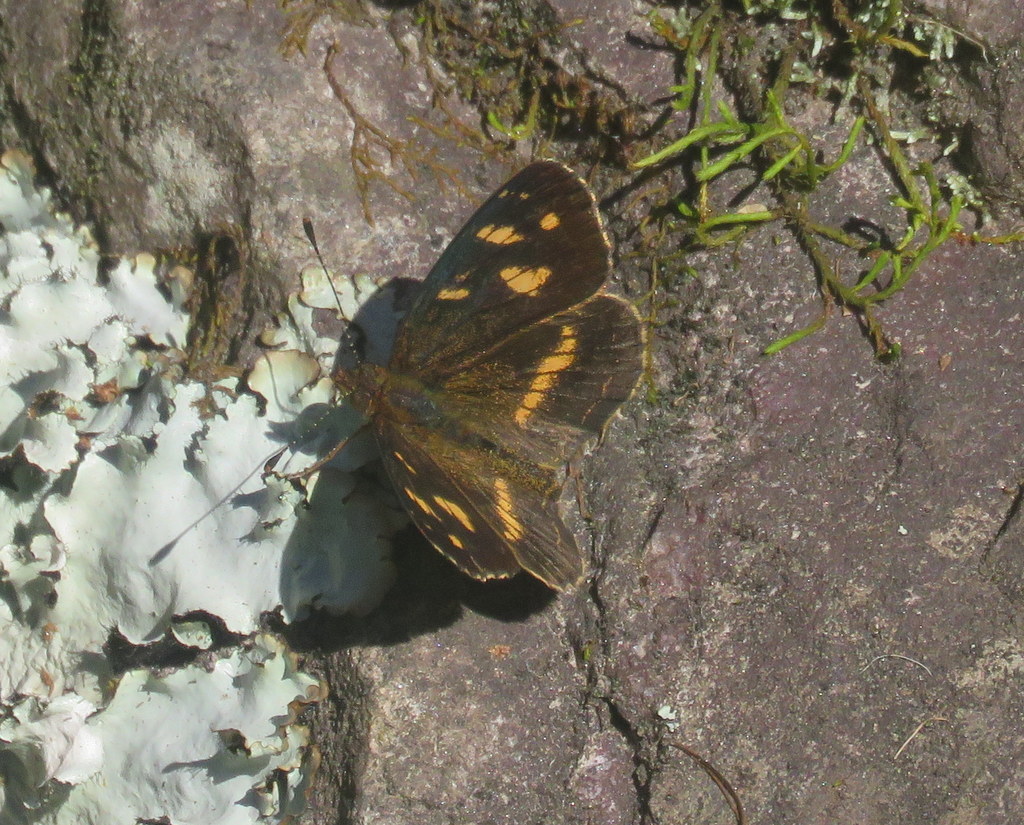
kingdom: Animalia
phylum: Arthropoda
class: Insecta
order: Lepidoptera
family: Nymphalidae
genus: Telenassa
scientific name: Telenassa berenice
